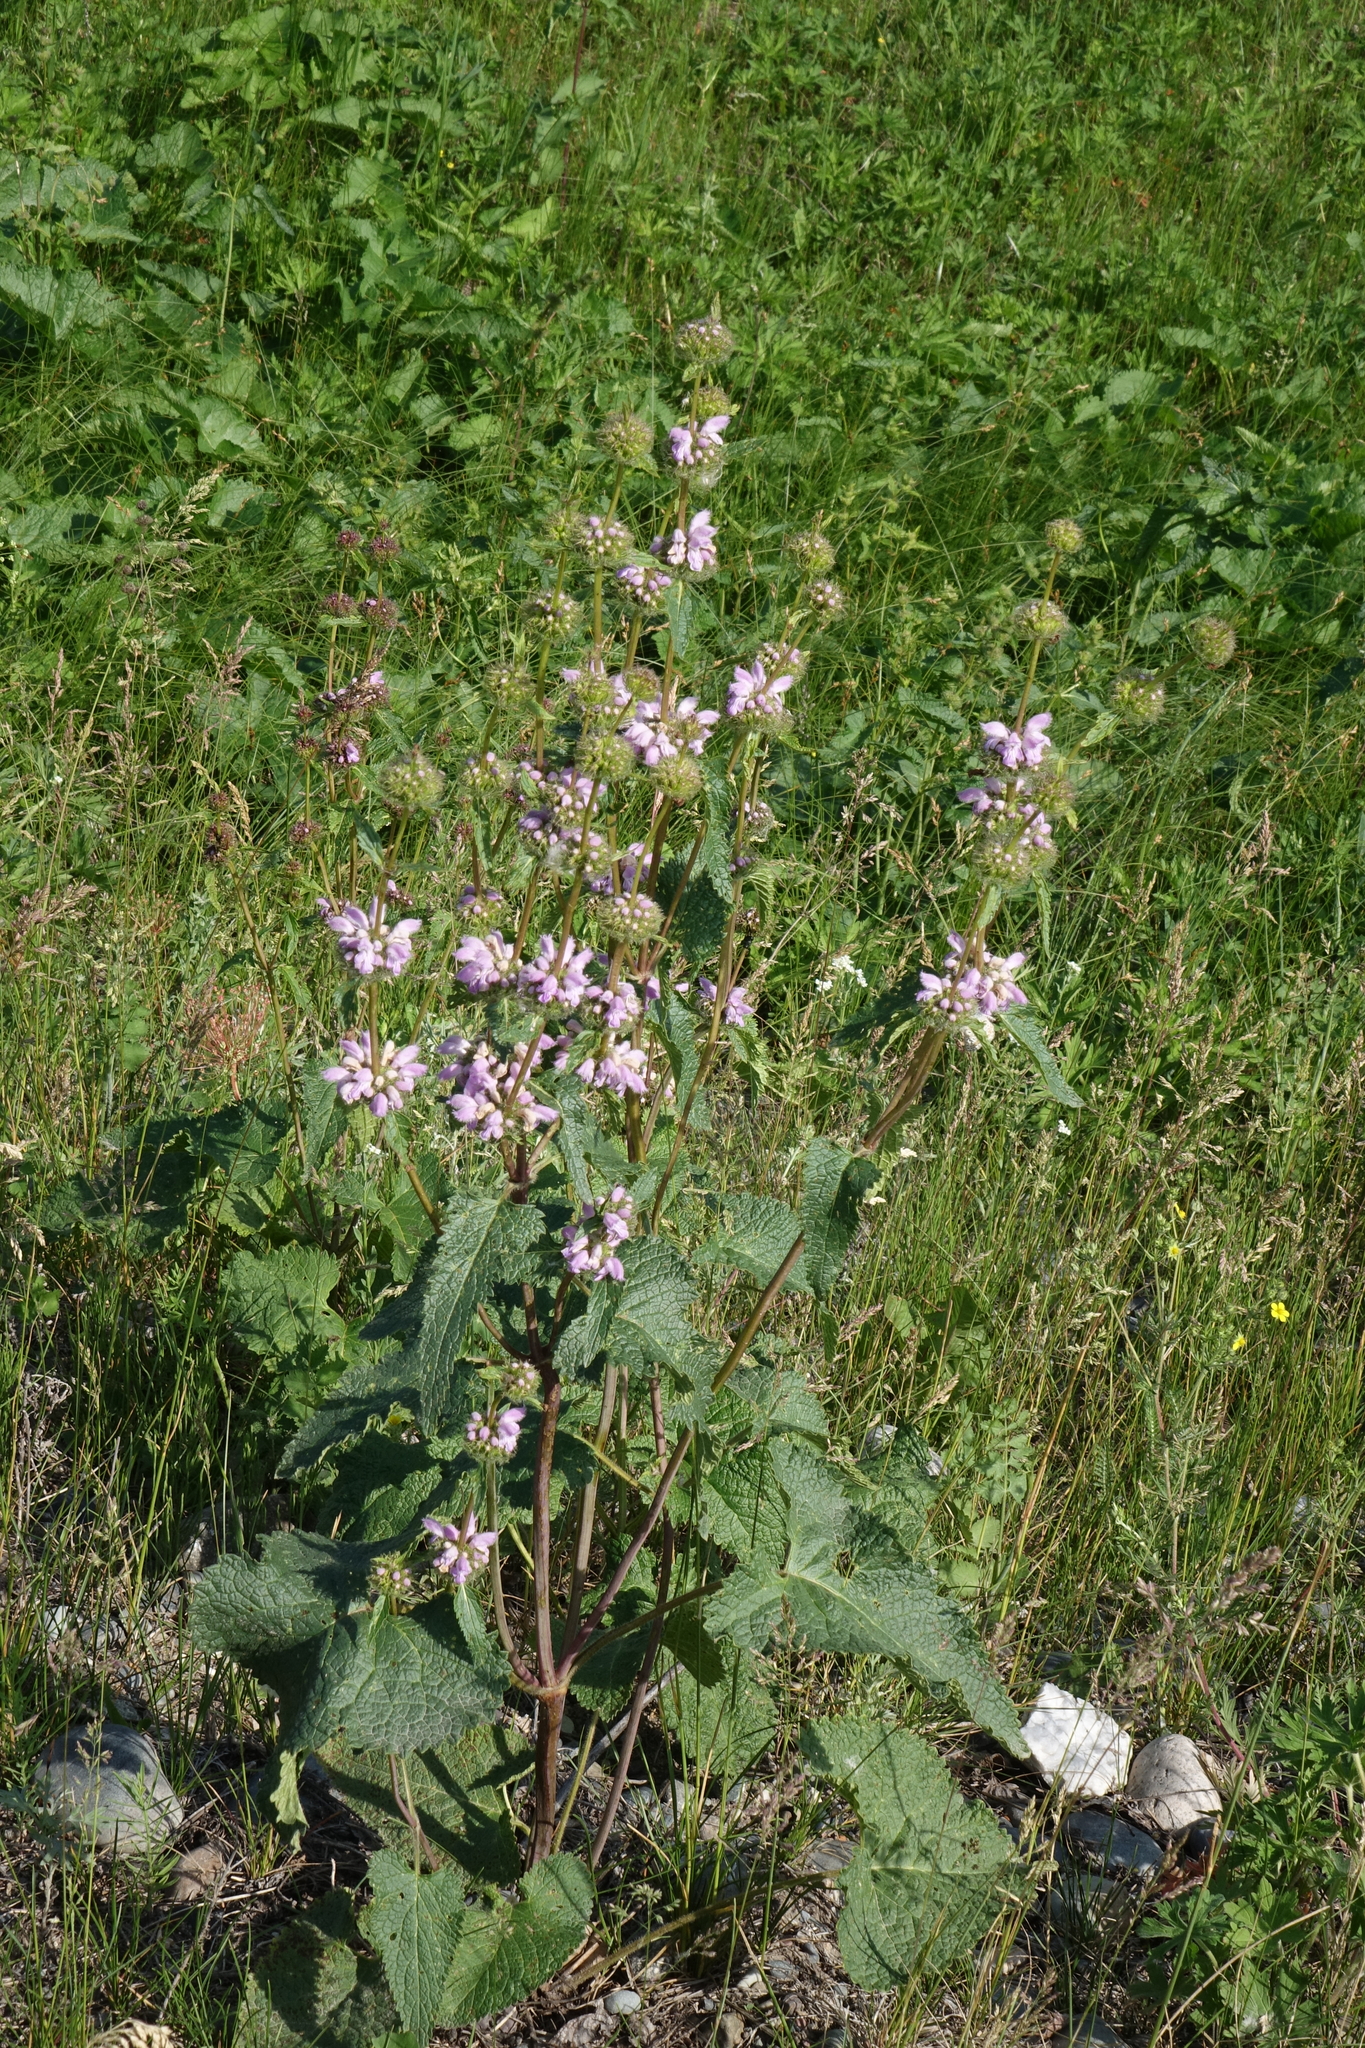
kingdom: Plantae
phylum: Tracheophyta
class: Magnoliopsida
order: Lamiales
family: Lamiaceae
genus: Phlomoides
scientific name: Phlomoides tuberosa
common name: Tuberous jerusalem sage
